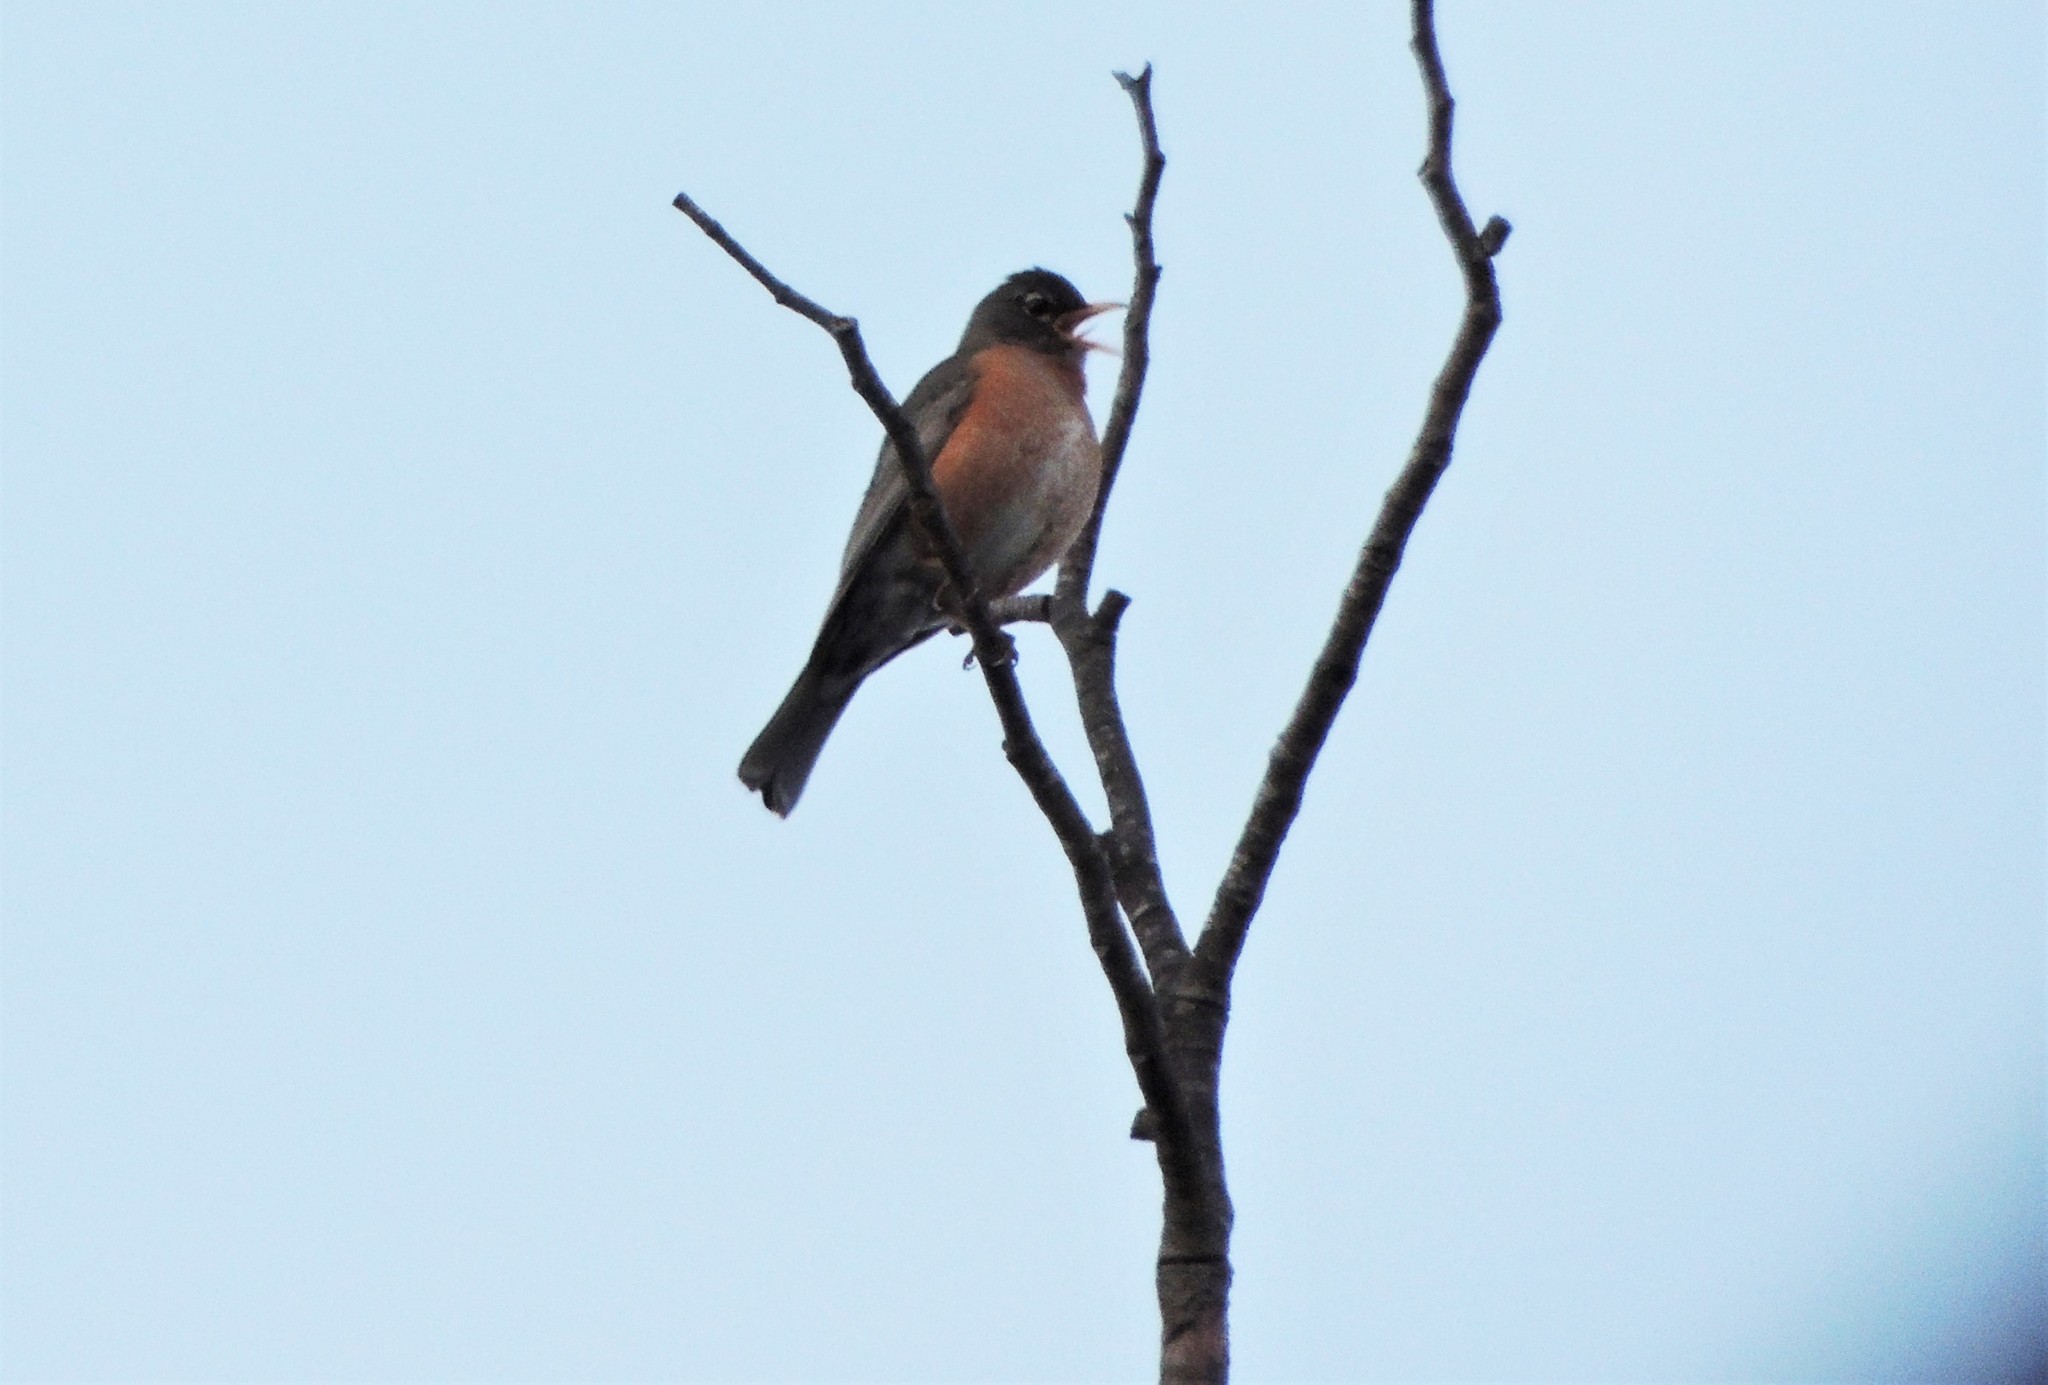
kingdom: Animalia
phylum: Chordata
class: Aves
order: Passeriformes
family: Turdidae
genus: Turdus
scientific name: Turdus migratorius
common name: American robin
